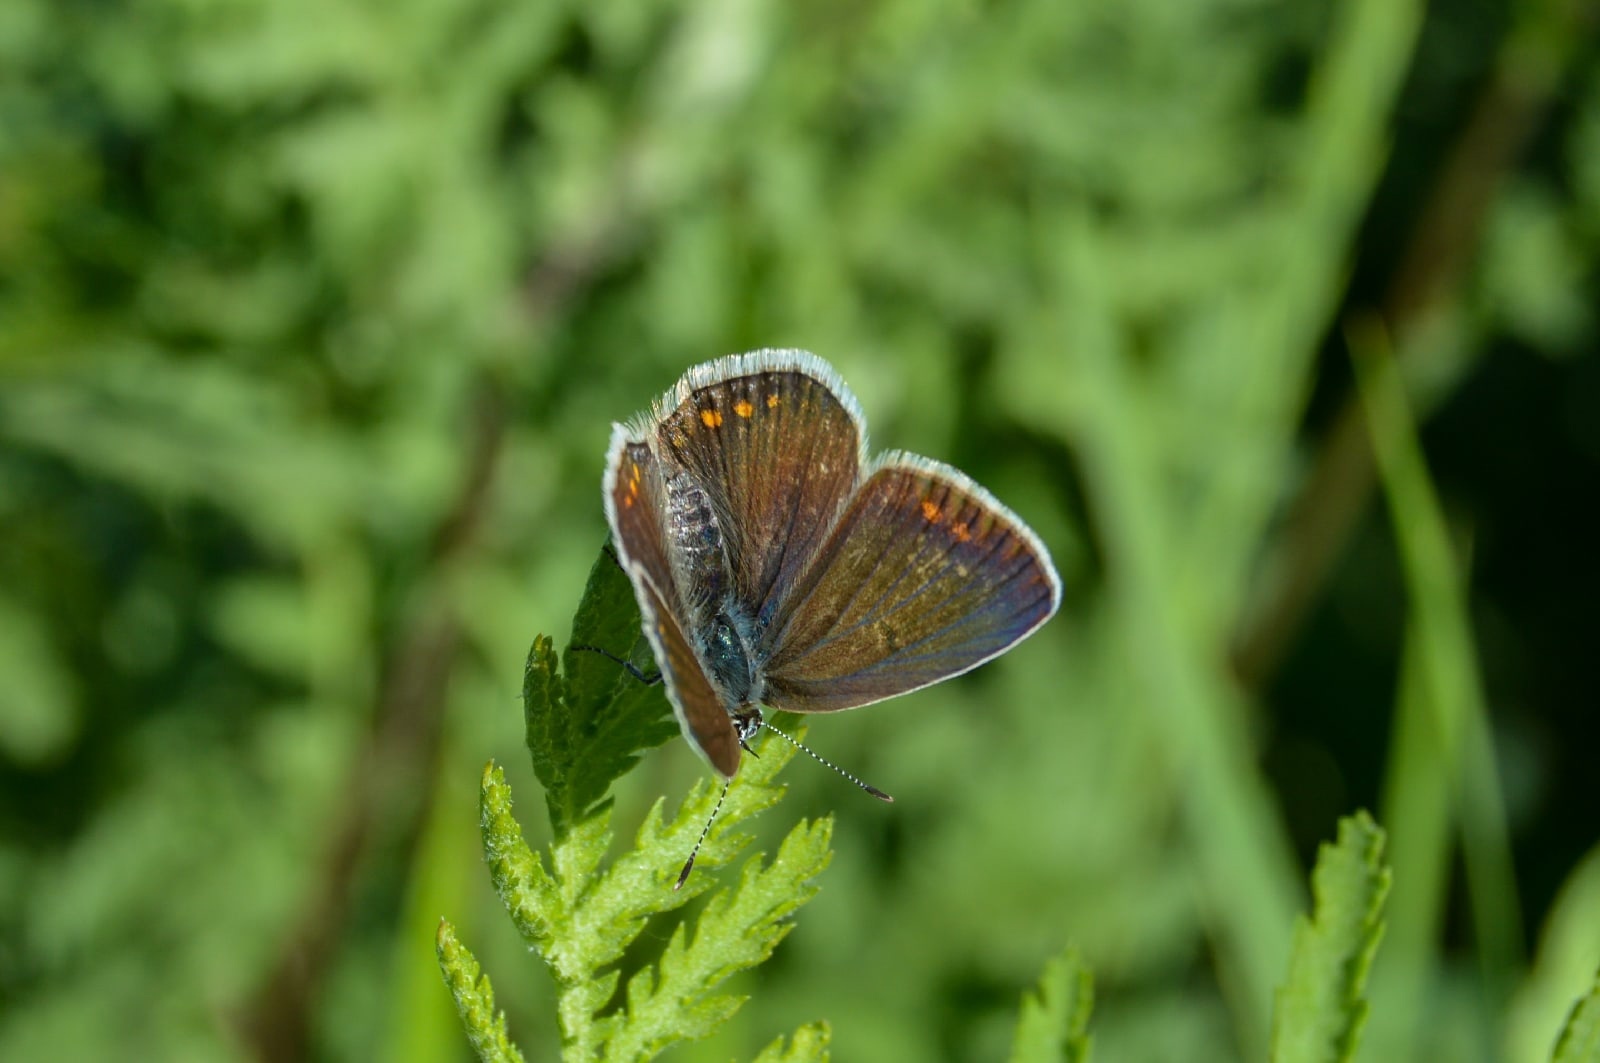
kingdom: Animalia
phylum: Arthropoda
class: Insecta
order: Lepidoptera
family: Lycaenidae
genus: Polyommatus
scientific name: Polyommatus icarus
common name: Common blue
